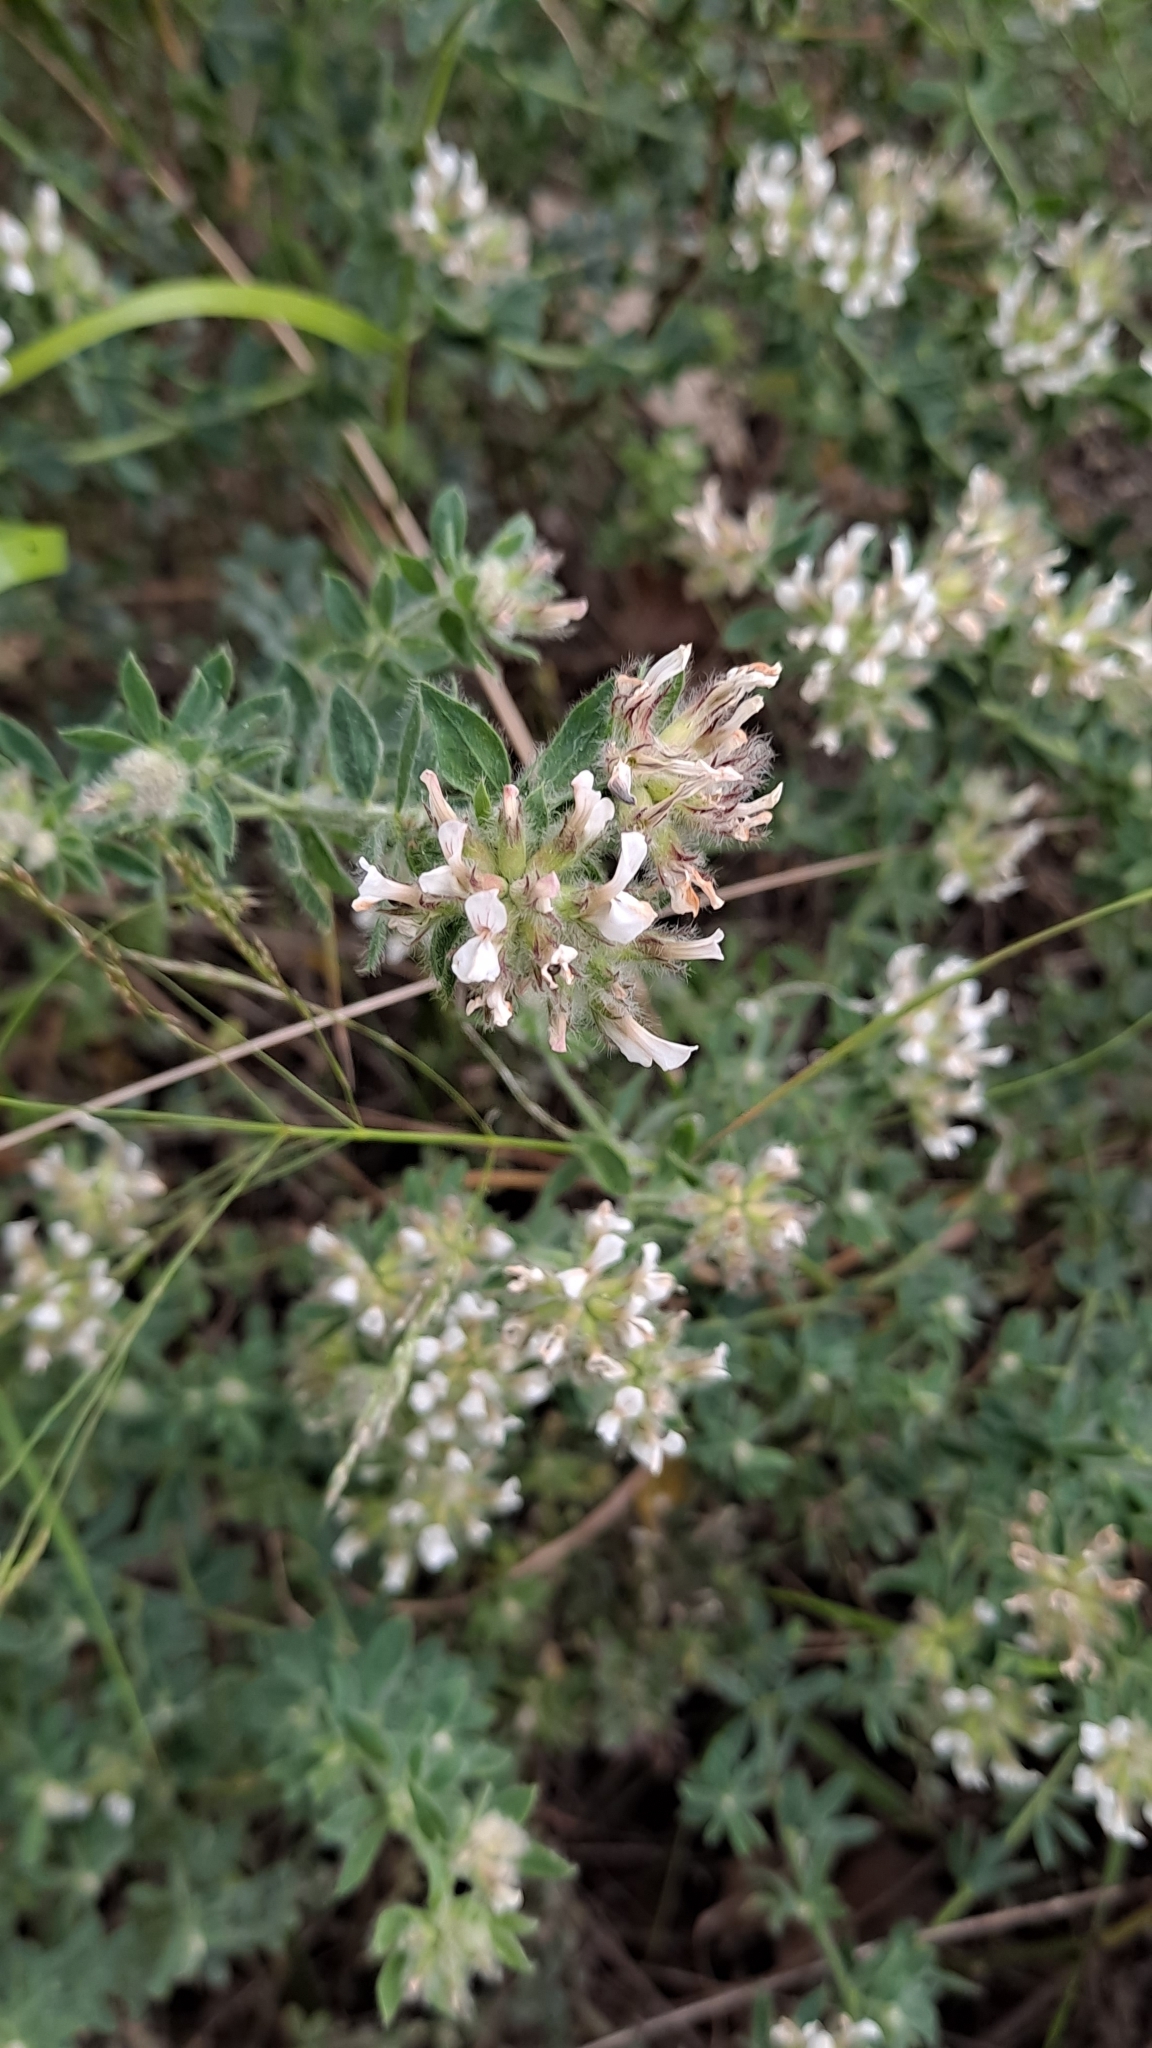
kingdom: Plantae
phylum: Tracheophyta
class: Magnoliopsida
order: Fabales
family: Fabaceae
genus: Lotus
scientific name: Lotus hirsutus
